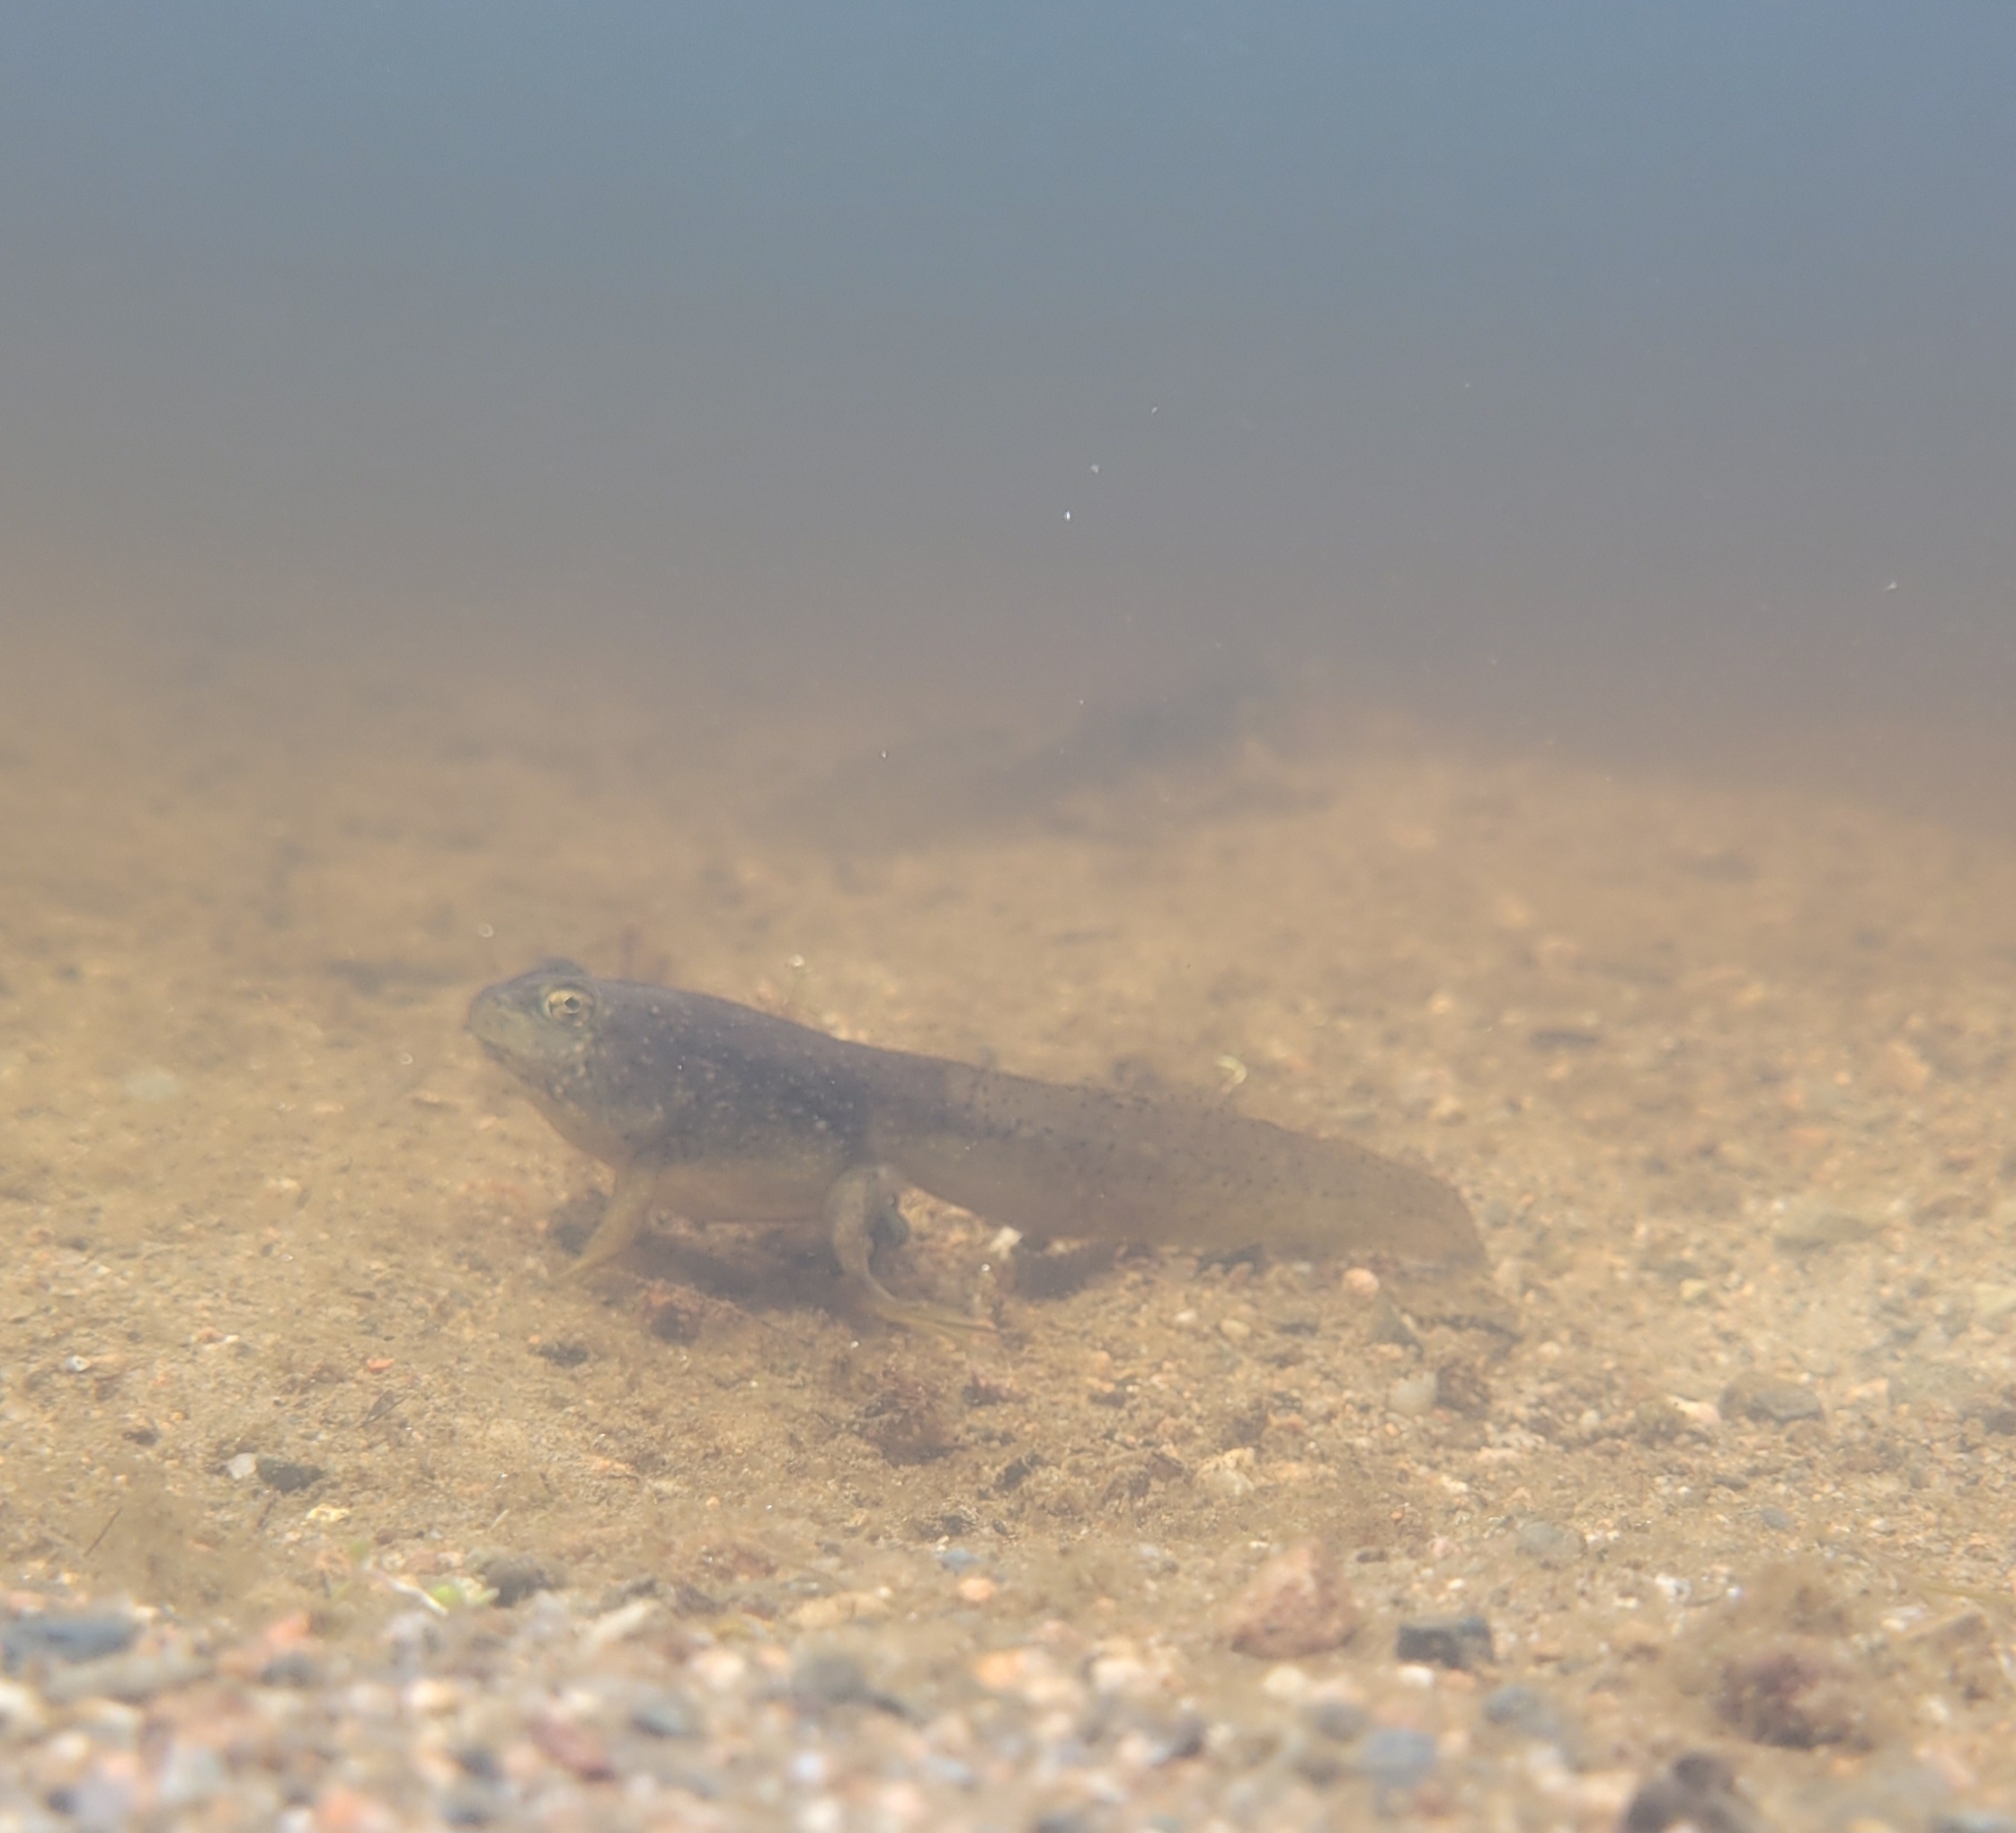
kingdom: Animalia
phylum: Chordata
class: Amphibia
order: Anura
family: Ranidae
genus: Lithobates
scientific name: Lithobates catesbeianus
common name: American bullfrog
